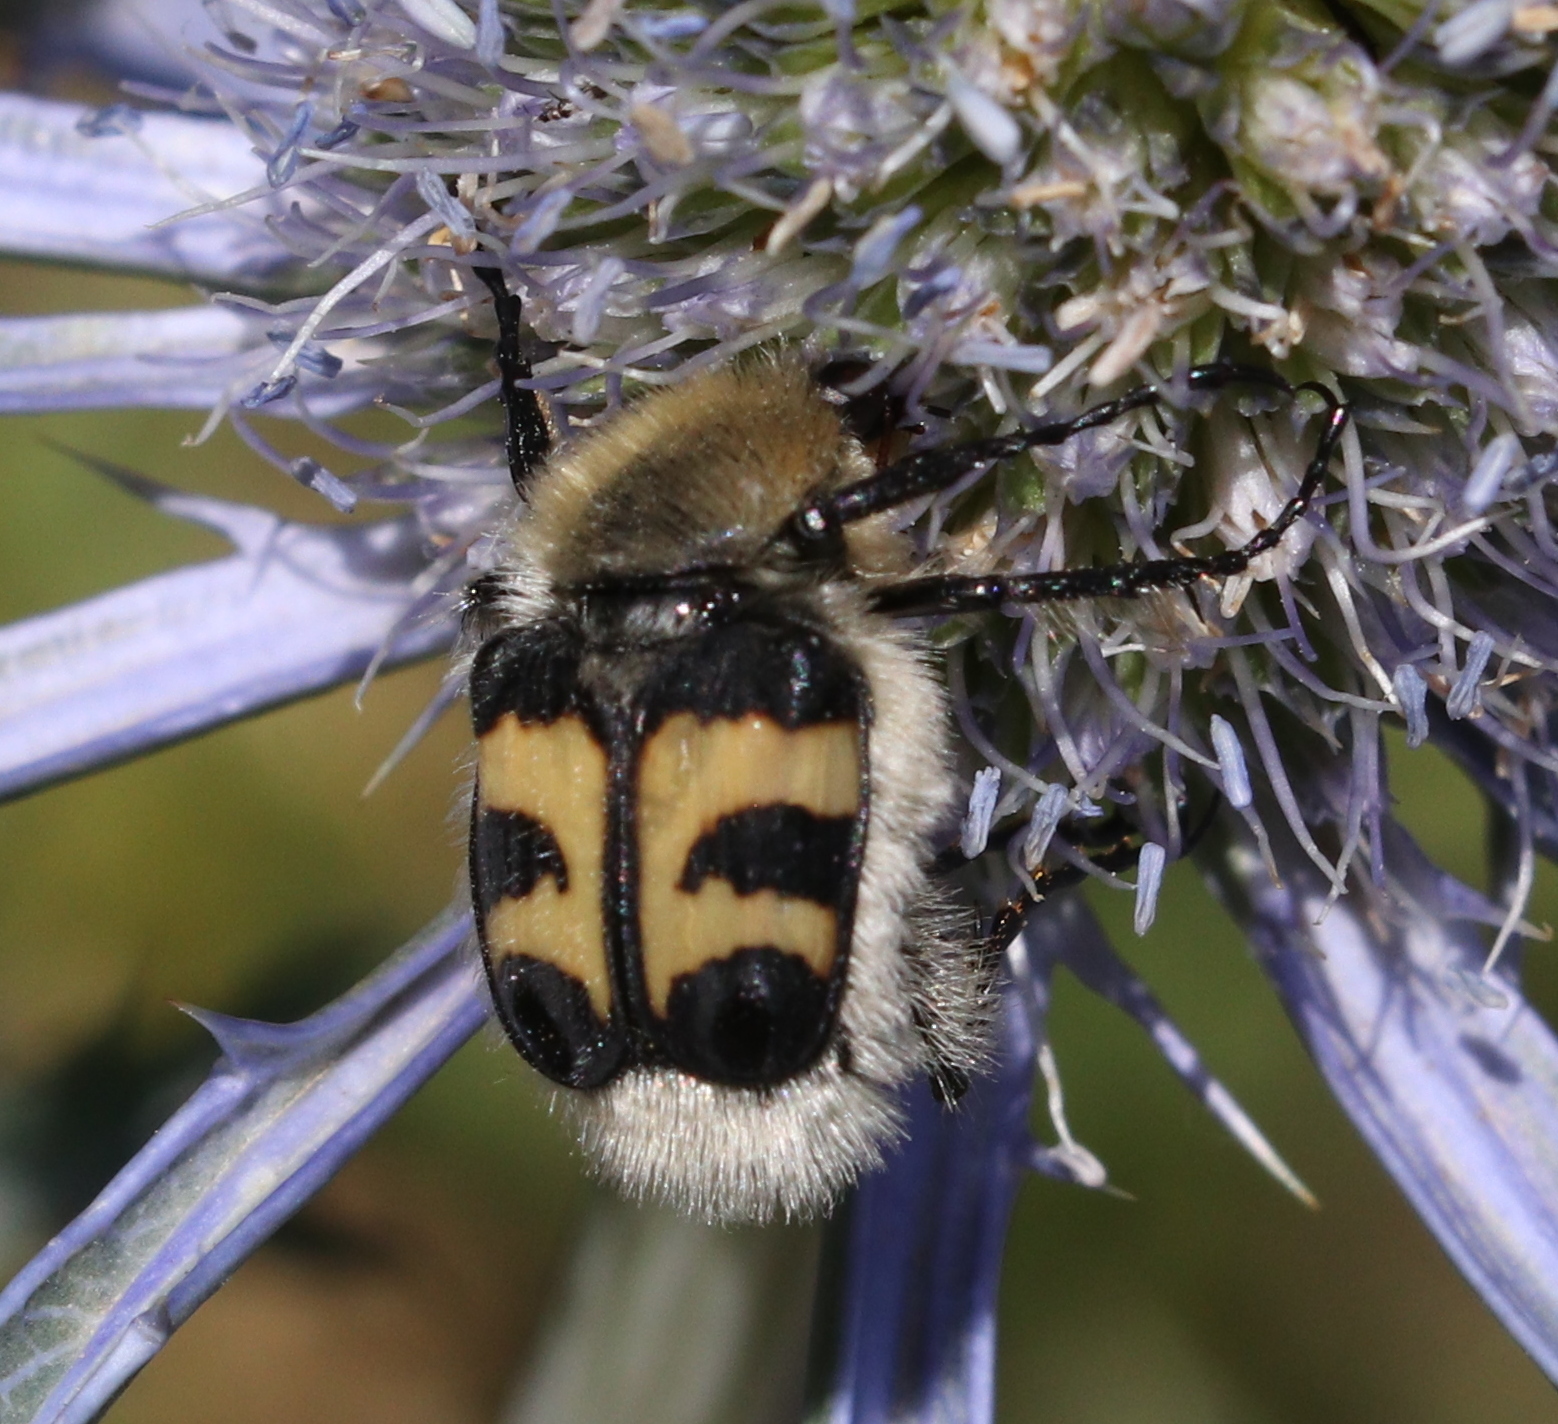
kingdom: Animalia
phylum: Arthropoda
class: Insecta
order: Coleoptera
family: Scarabaeidae
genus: Trichius
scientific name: Trichius fasciatus
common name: Bee beetle
